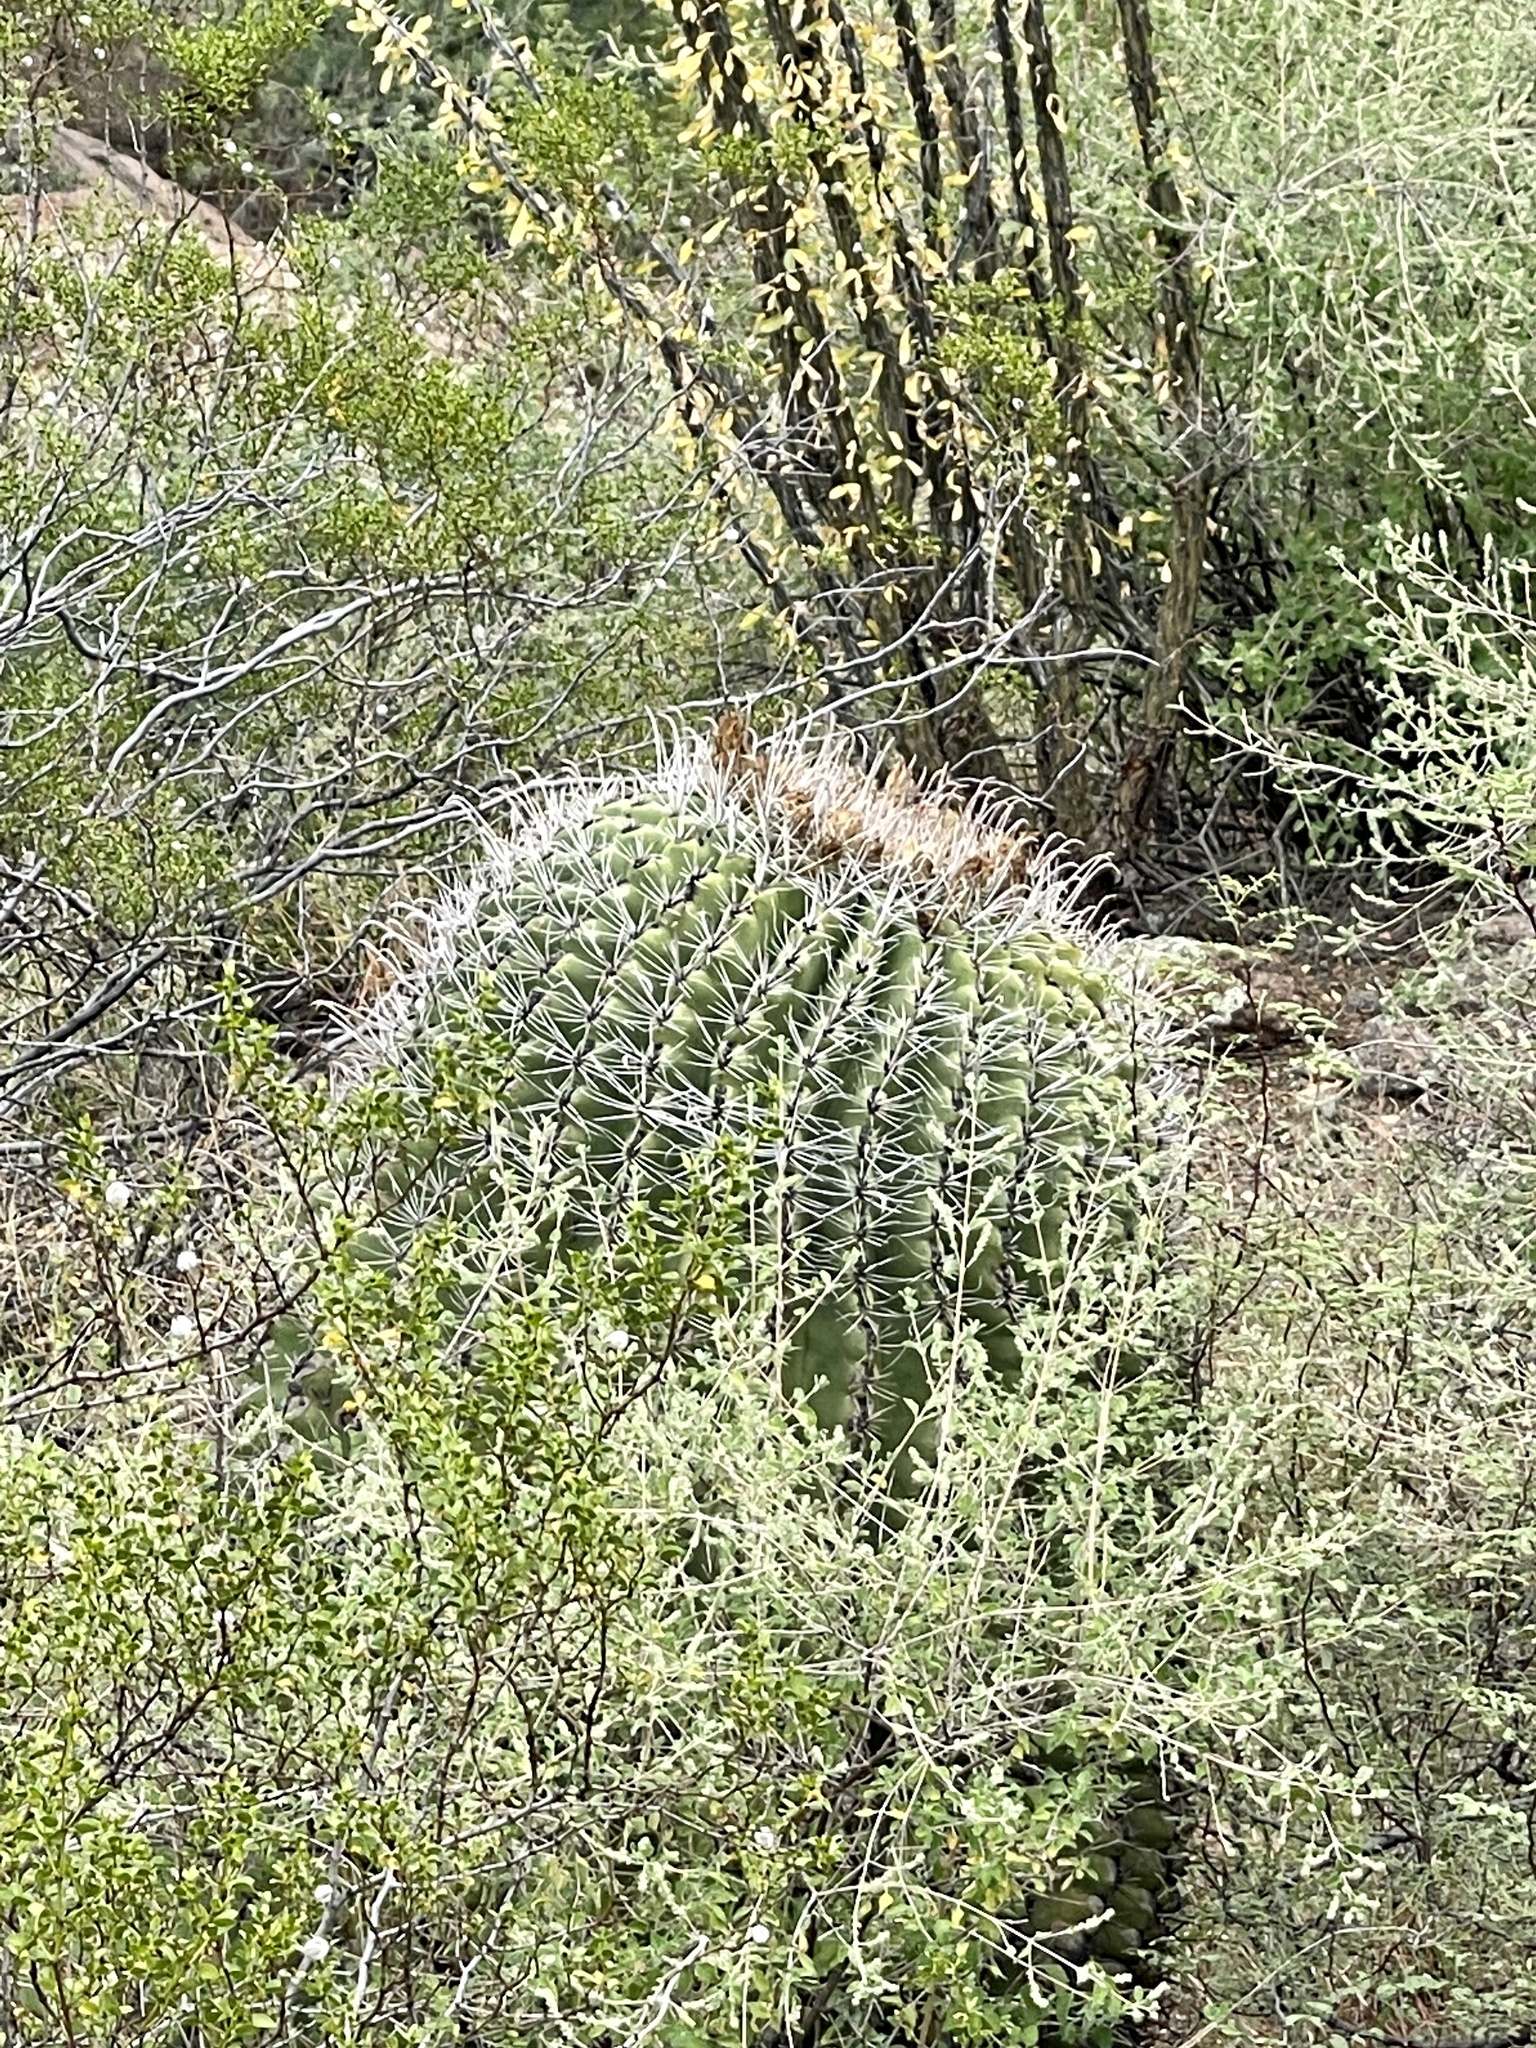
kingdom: Plantae
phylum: Tracheophyta
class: Magnoliopsida
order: Caryophyllales
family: Cactaceae
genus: Ferocactus
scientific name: Ferocactus wislizeni
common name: Candy barrel cactus
